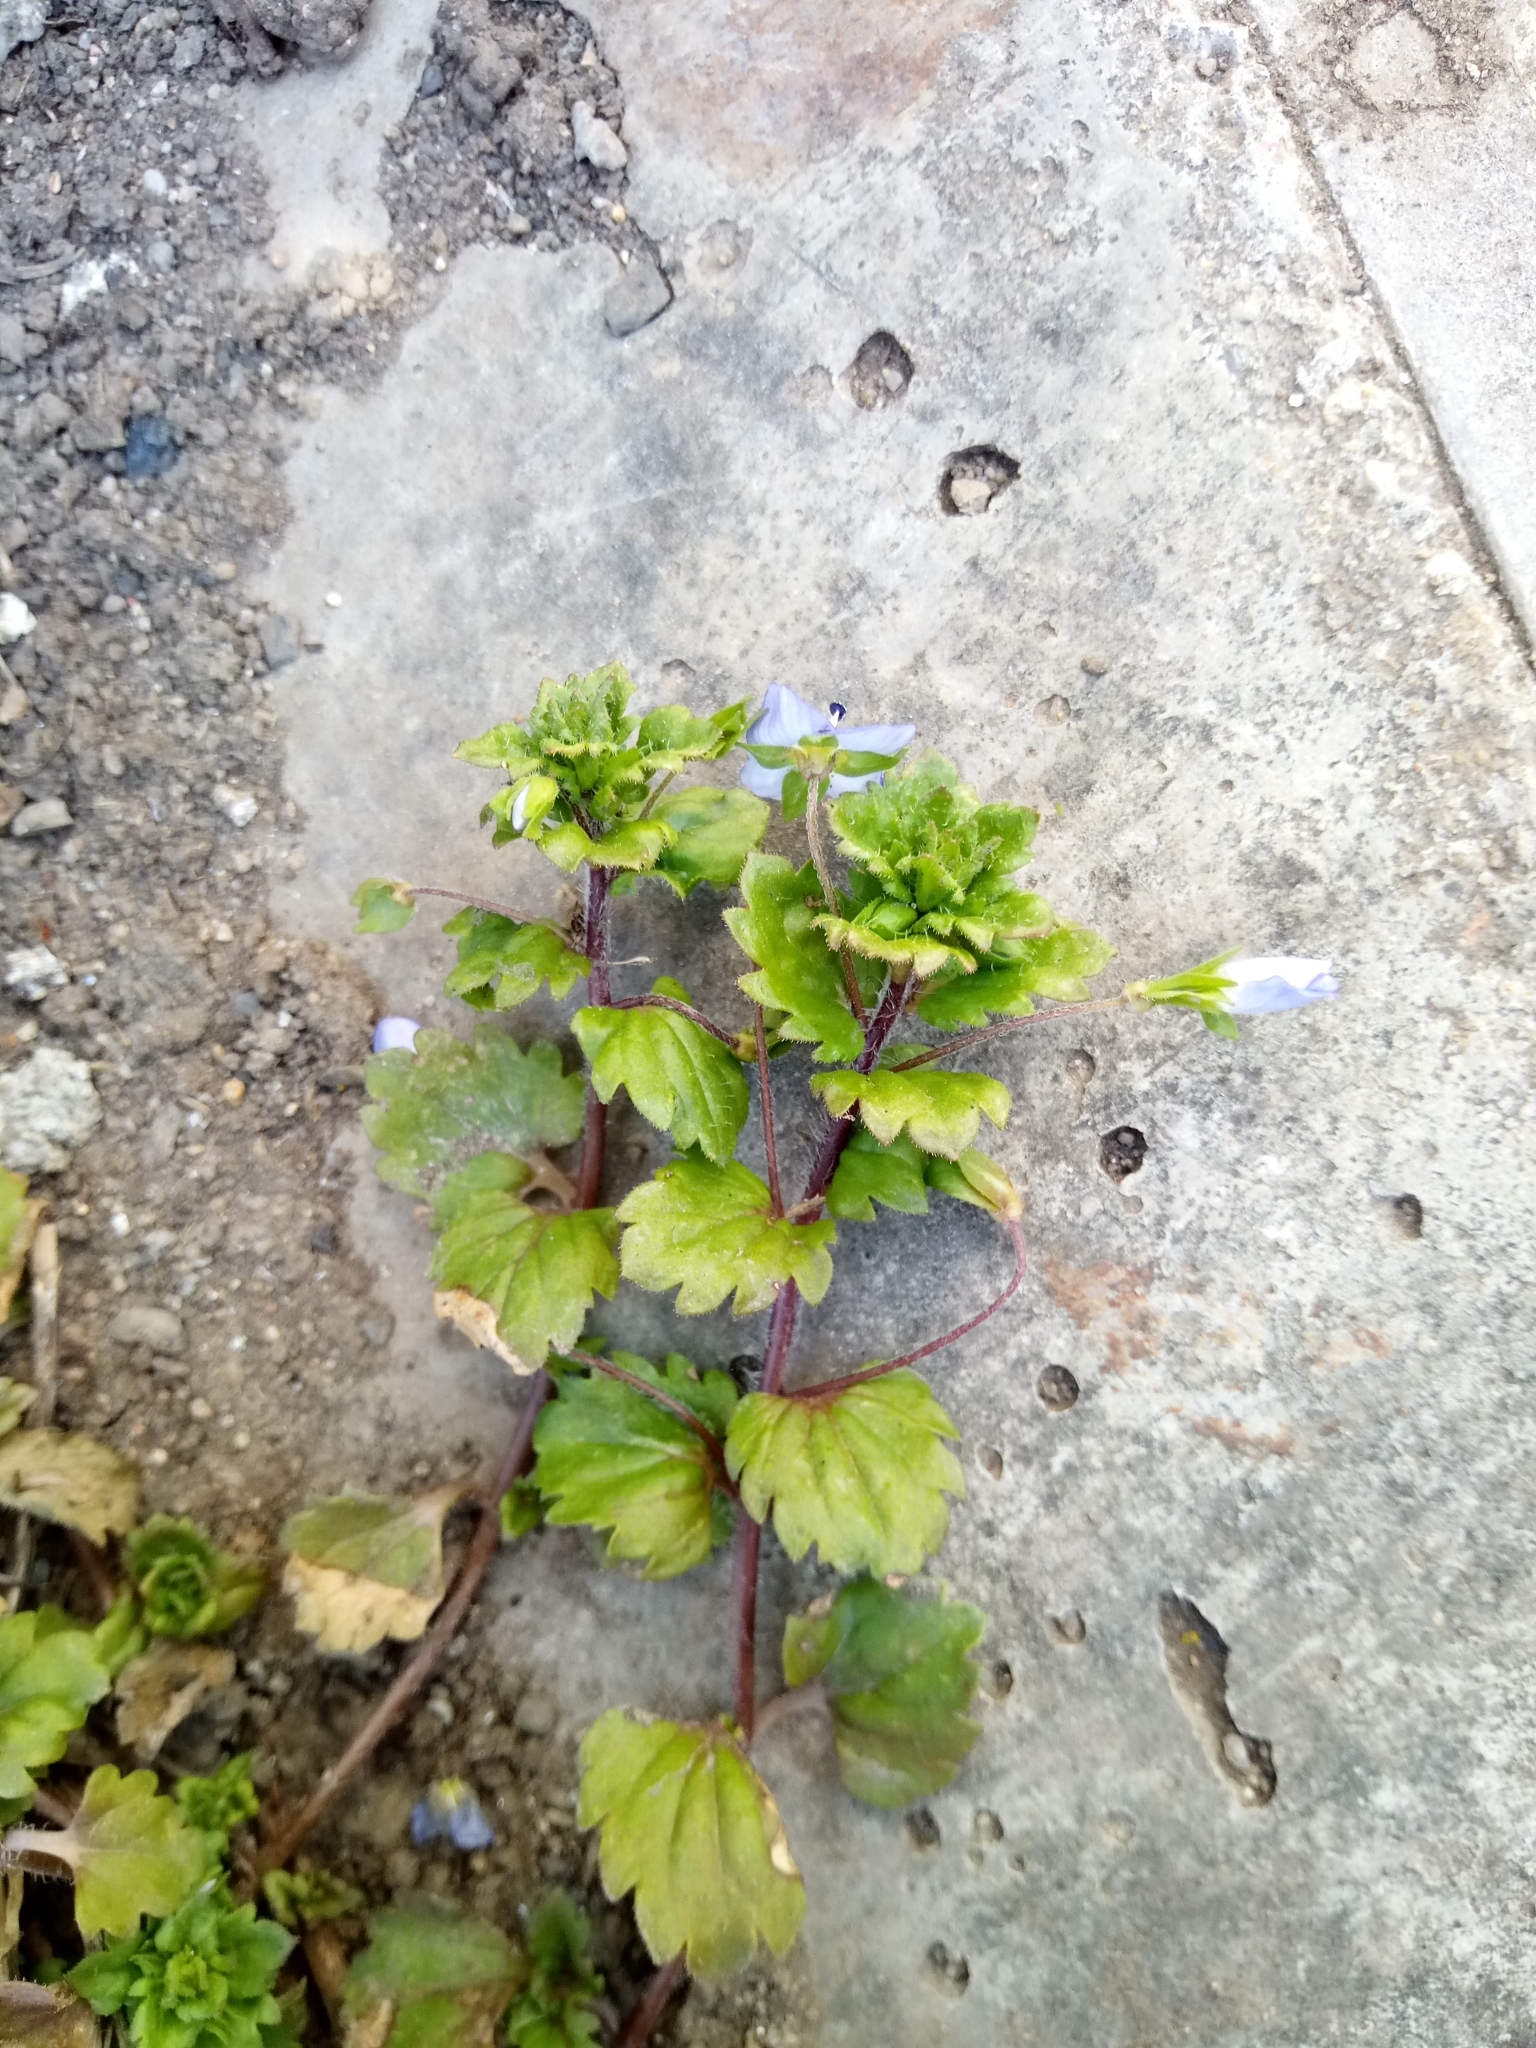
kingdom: Plantae
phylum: Tracheophyta
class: Magnoliopsida
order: Lamiales
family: Plantaginaceae
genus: Veronica
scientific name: Veronica persica
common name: Common field-speedwell
